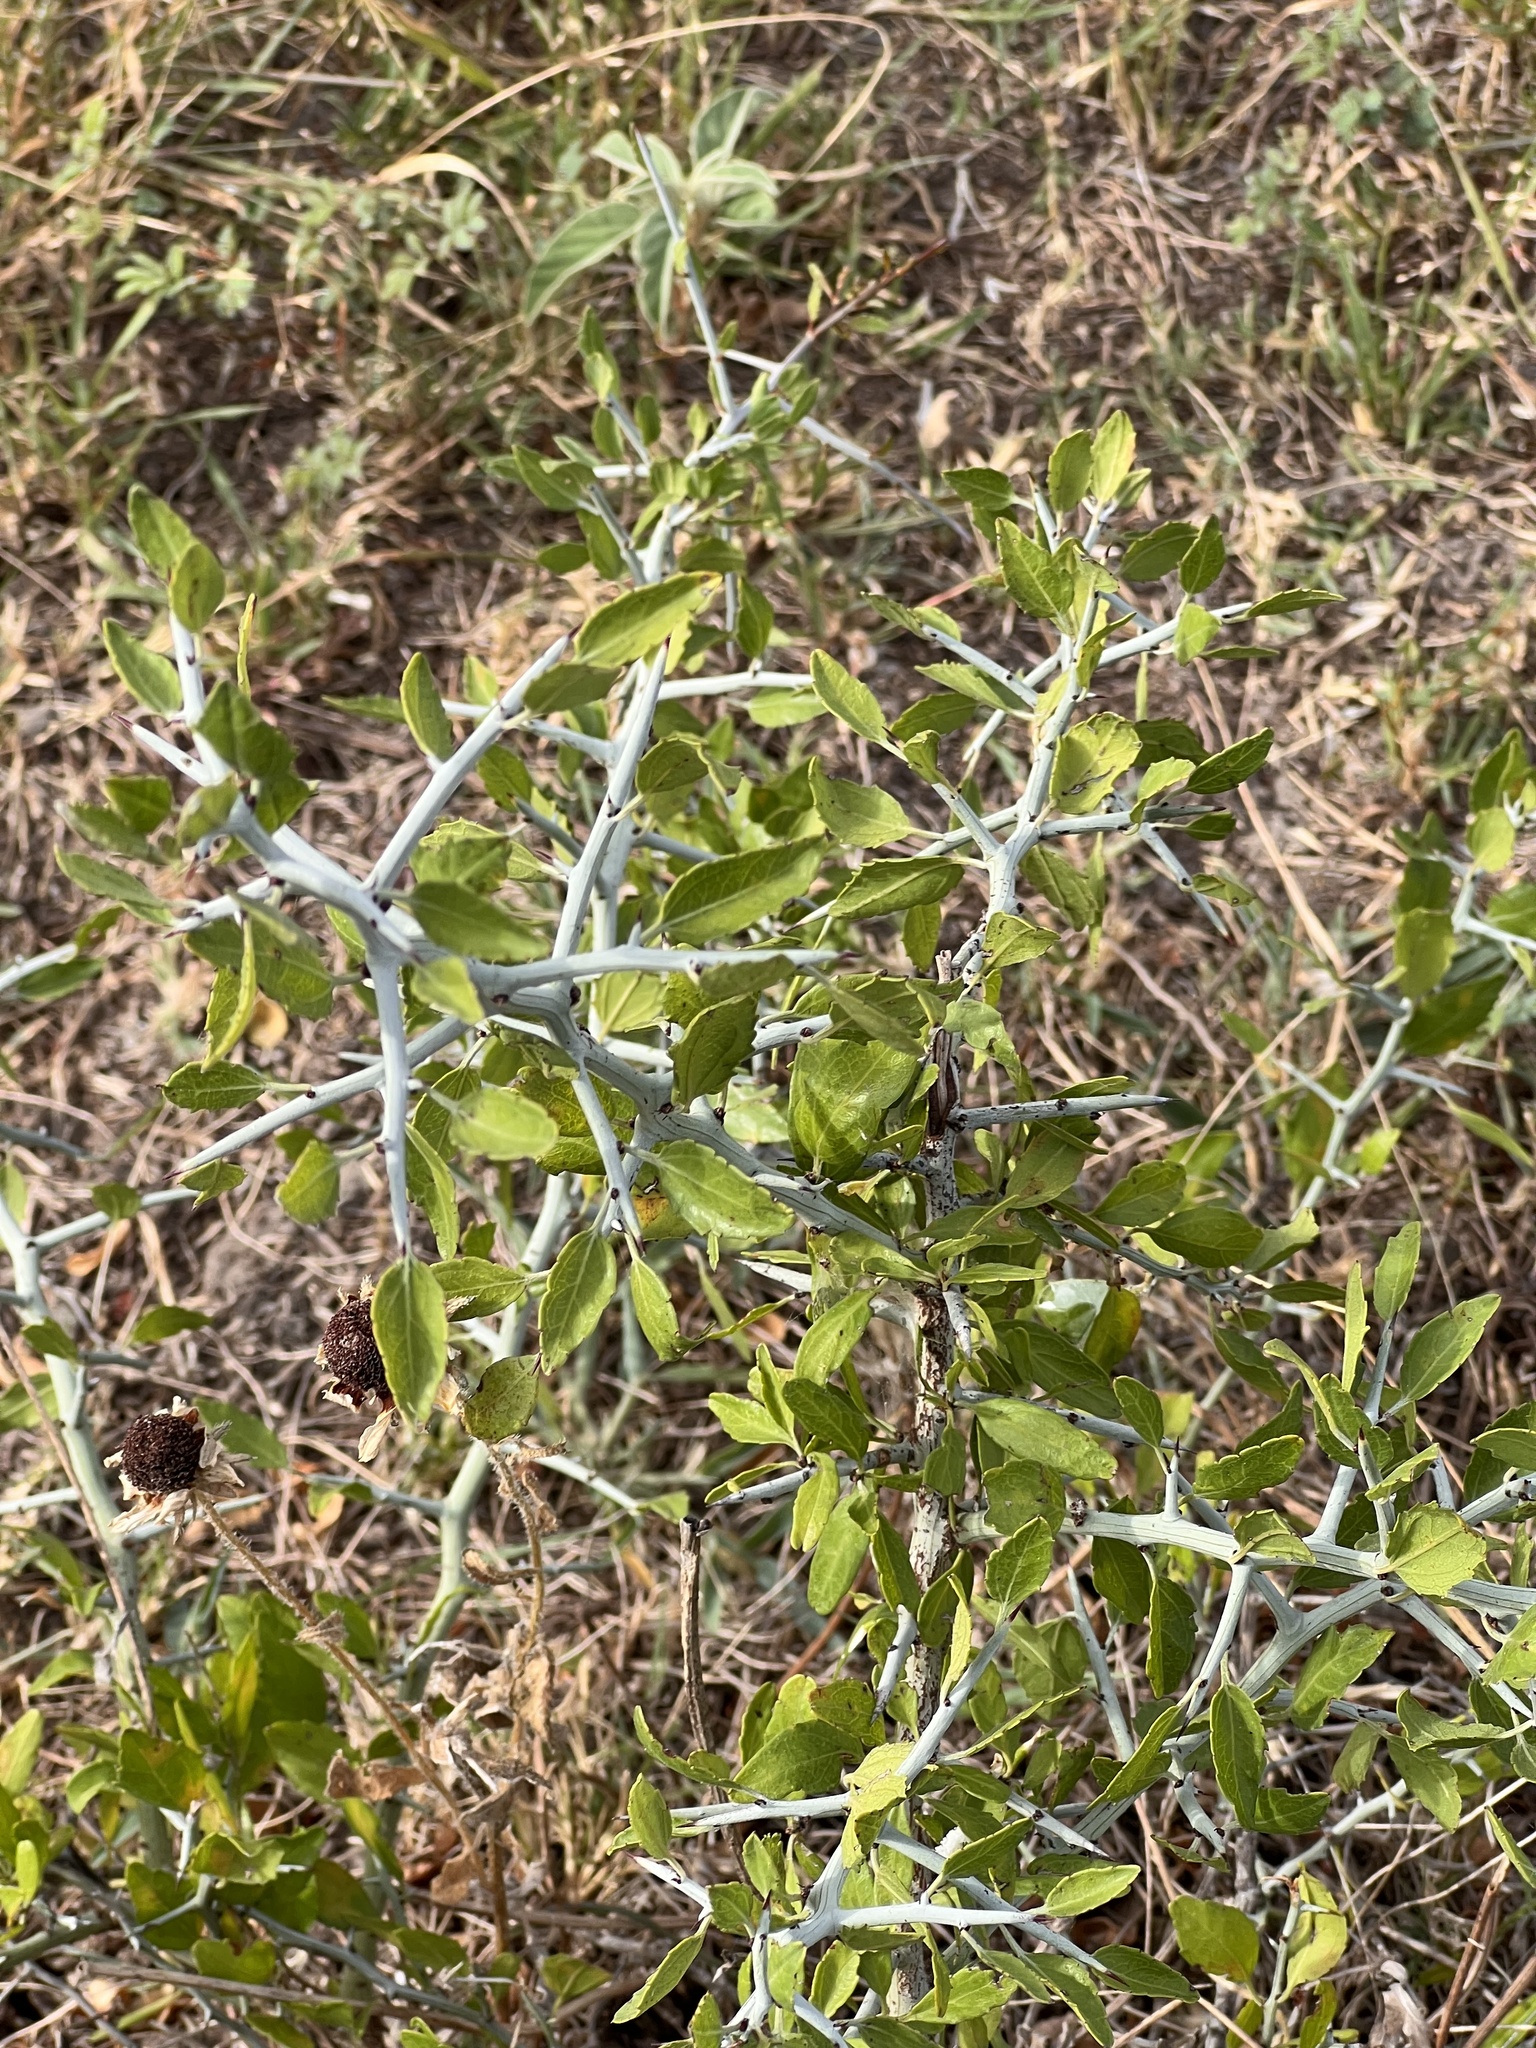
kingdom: Plantae
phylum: Tracheophyta
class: Magnoliopsida
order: Rosales
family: Rhamnaceae
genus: Sarcomphalus
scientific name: Sarcomphalus obtusifolius
